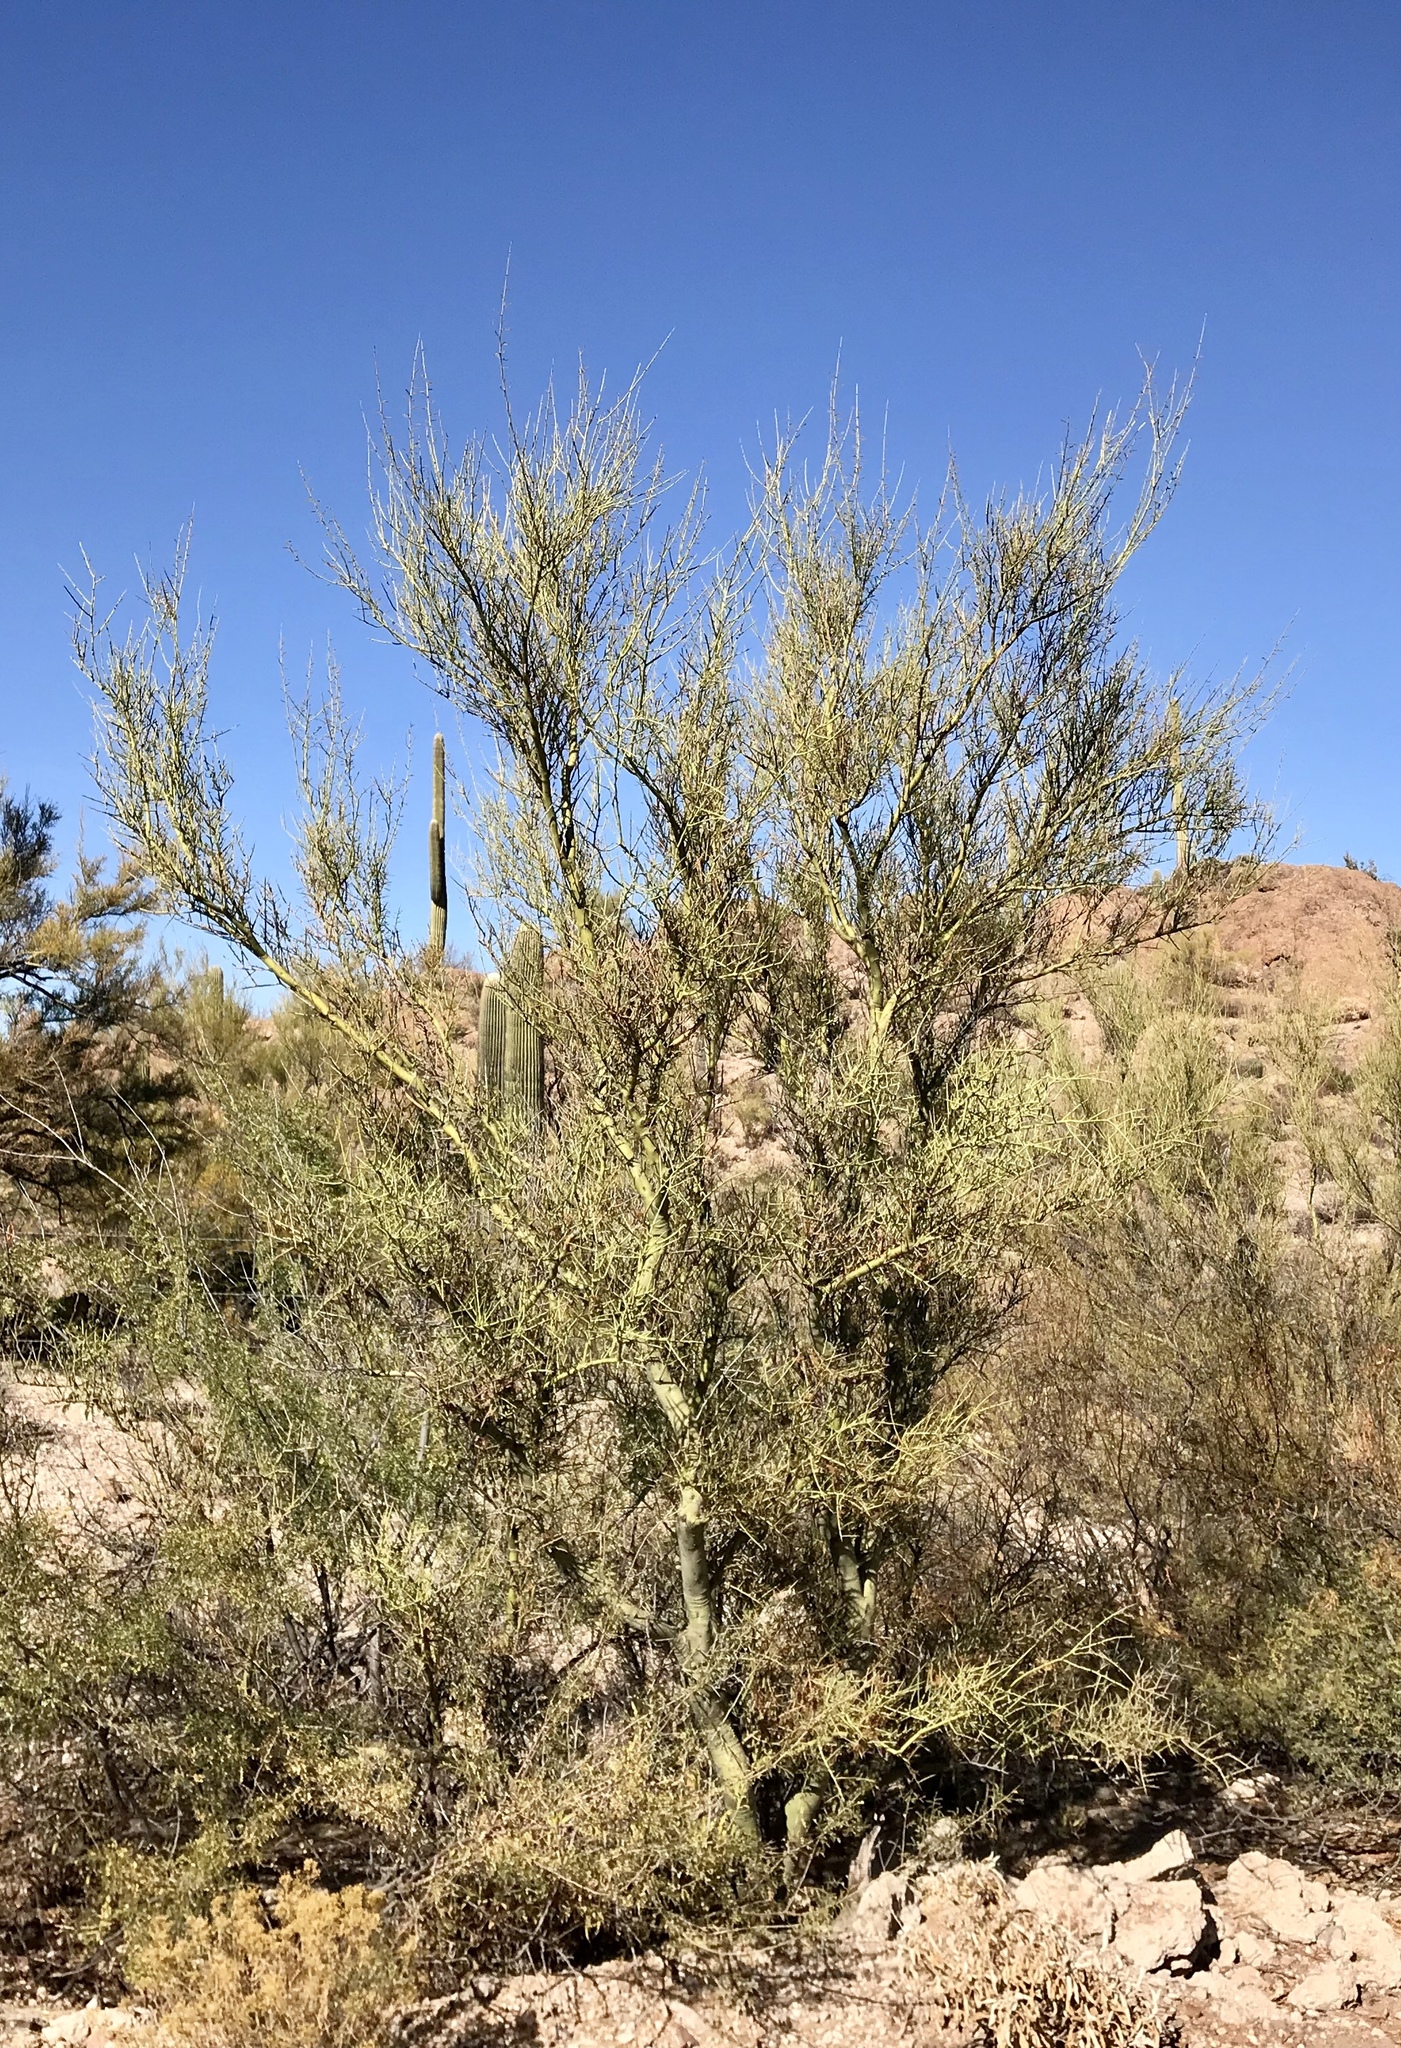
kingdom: Plantae
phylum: Tracheophyta
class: Magnoliopsida
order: Fabales
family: Fabaceae
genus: Parkinsonia
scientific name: Parkinsonia florida
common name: Blue paloverde
